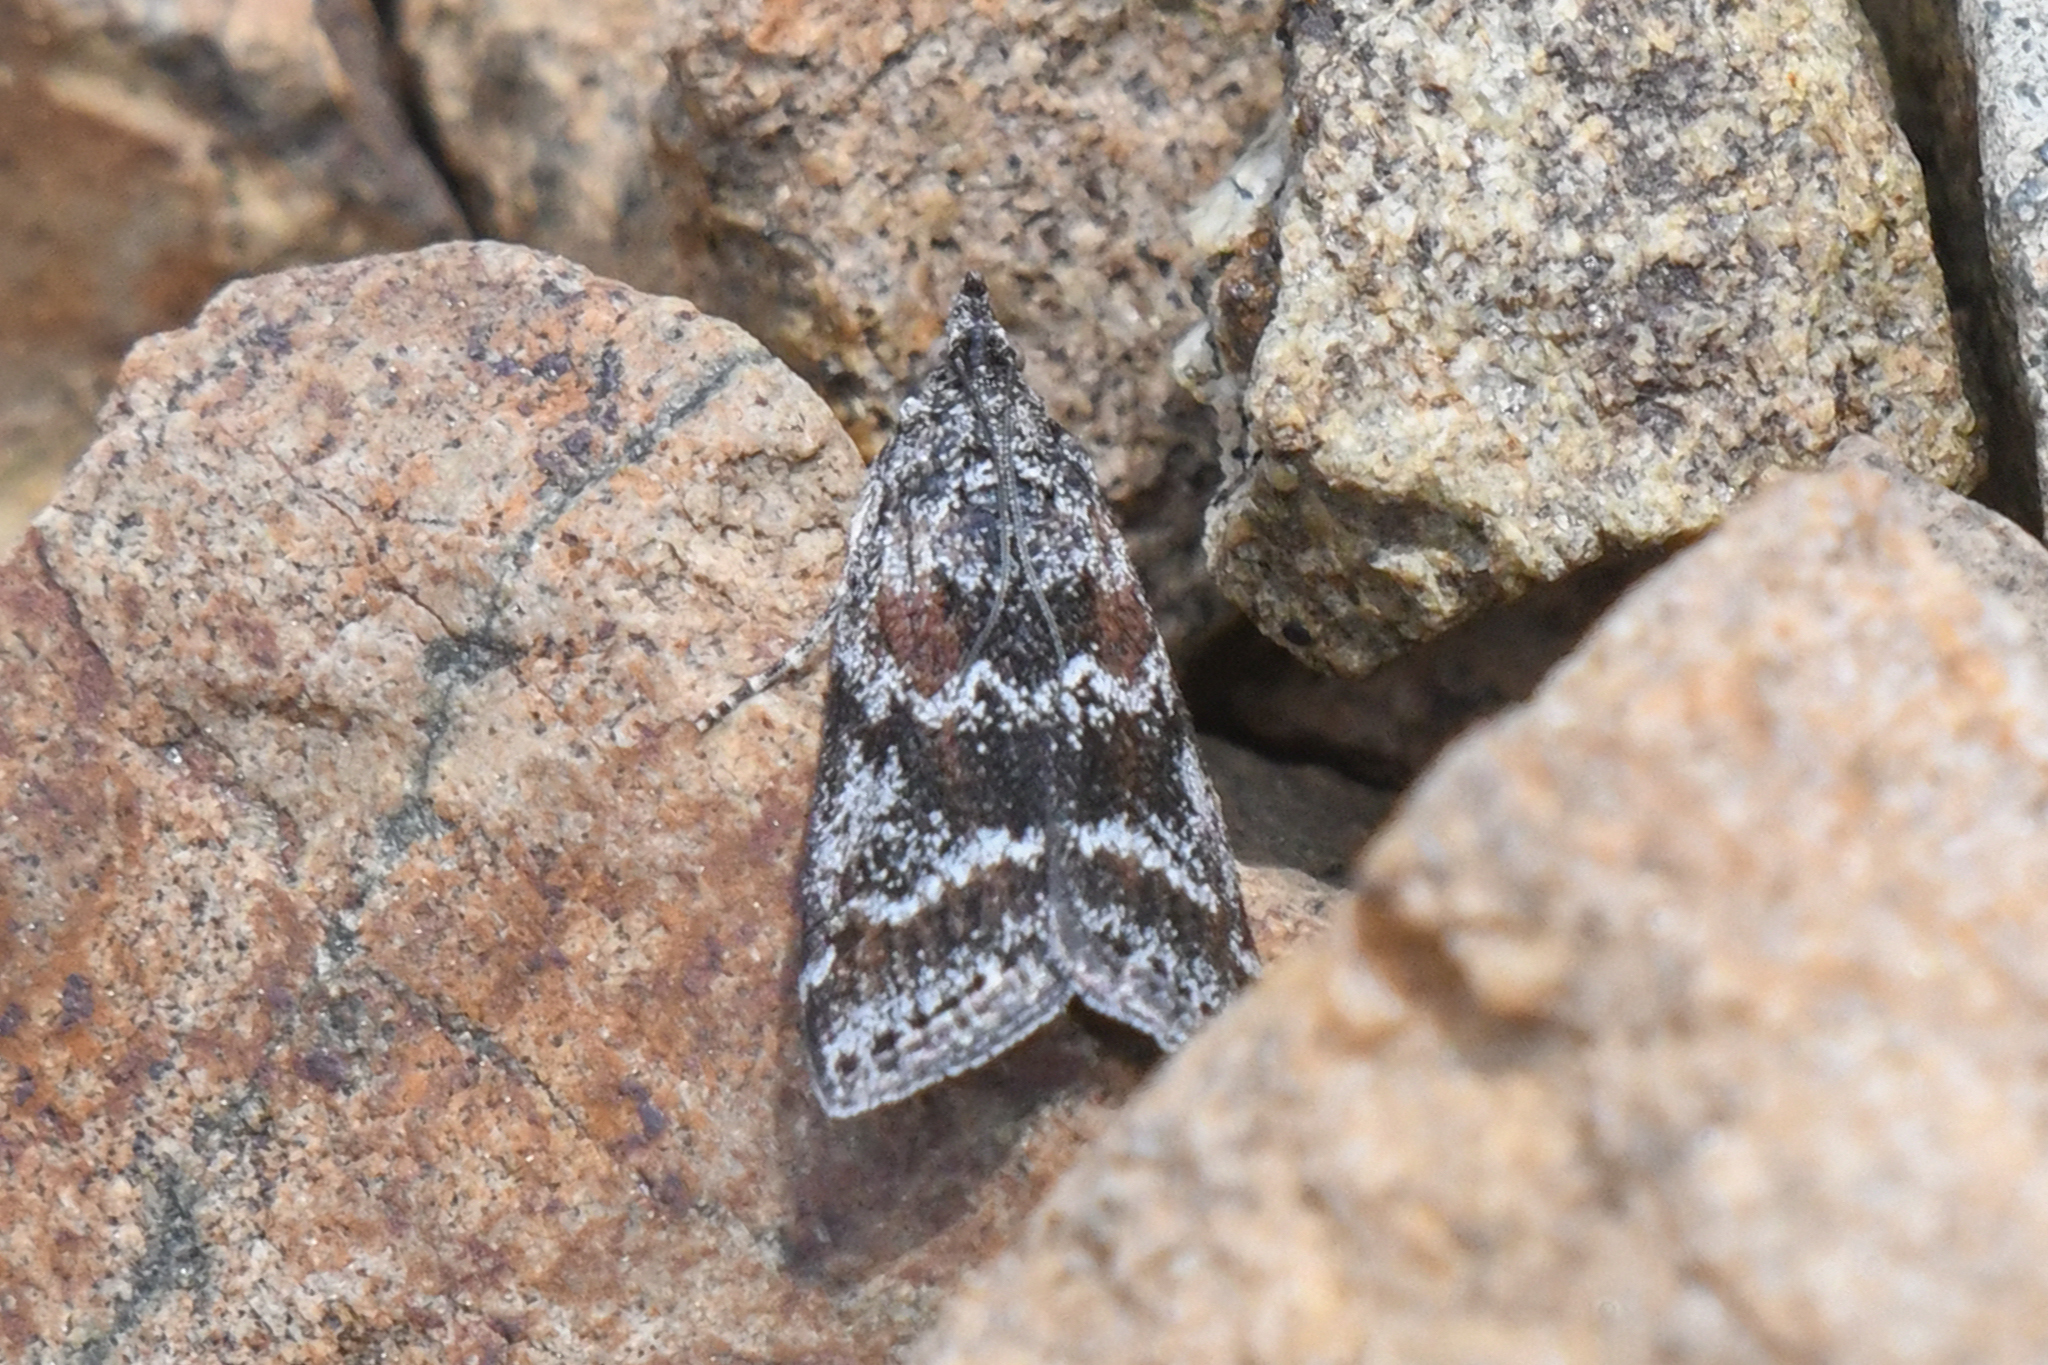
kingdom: Animalia
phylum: Arthropoda
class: Insecta
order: Lepidoptera
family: Pyralidae
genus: Telethusia
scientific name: Telethusia ovalis
